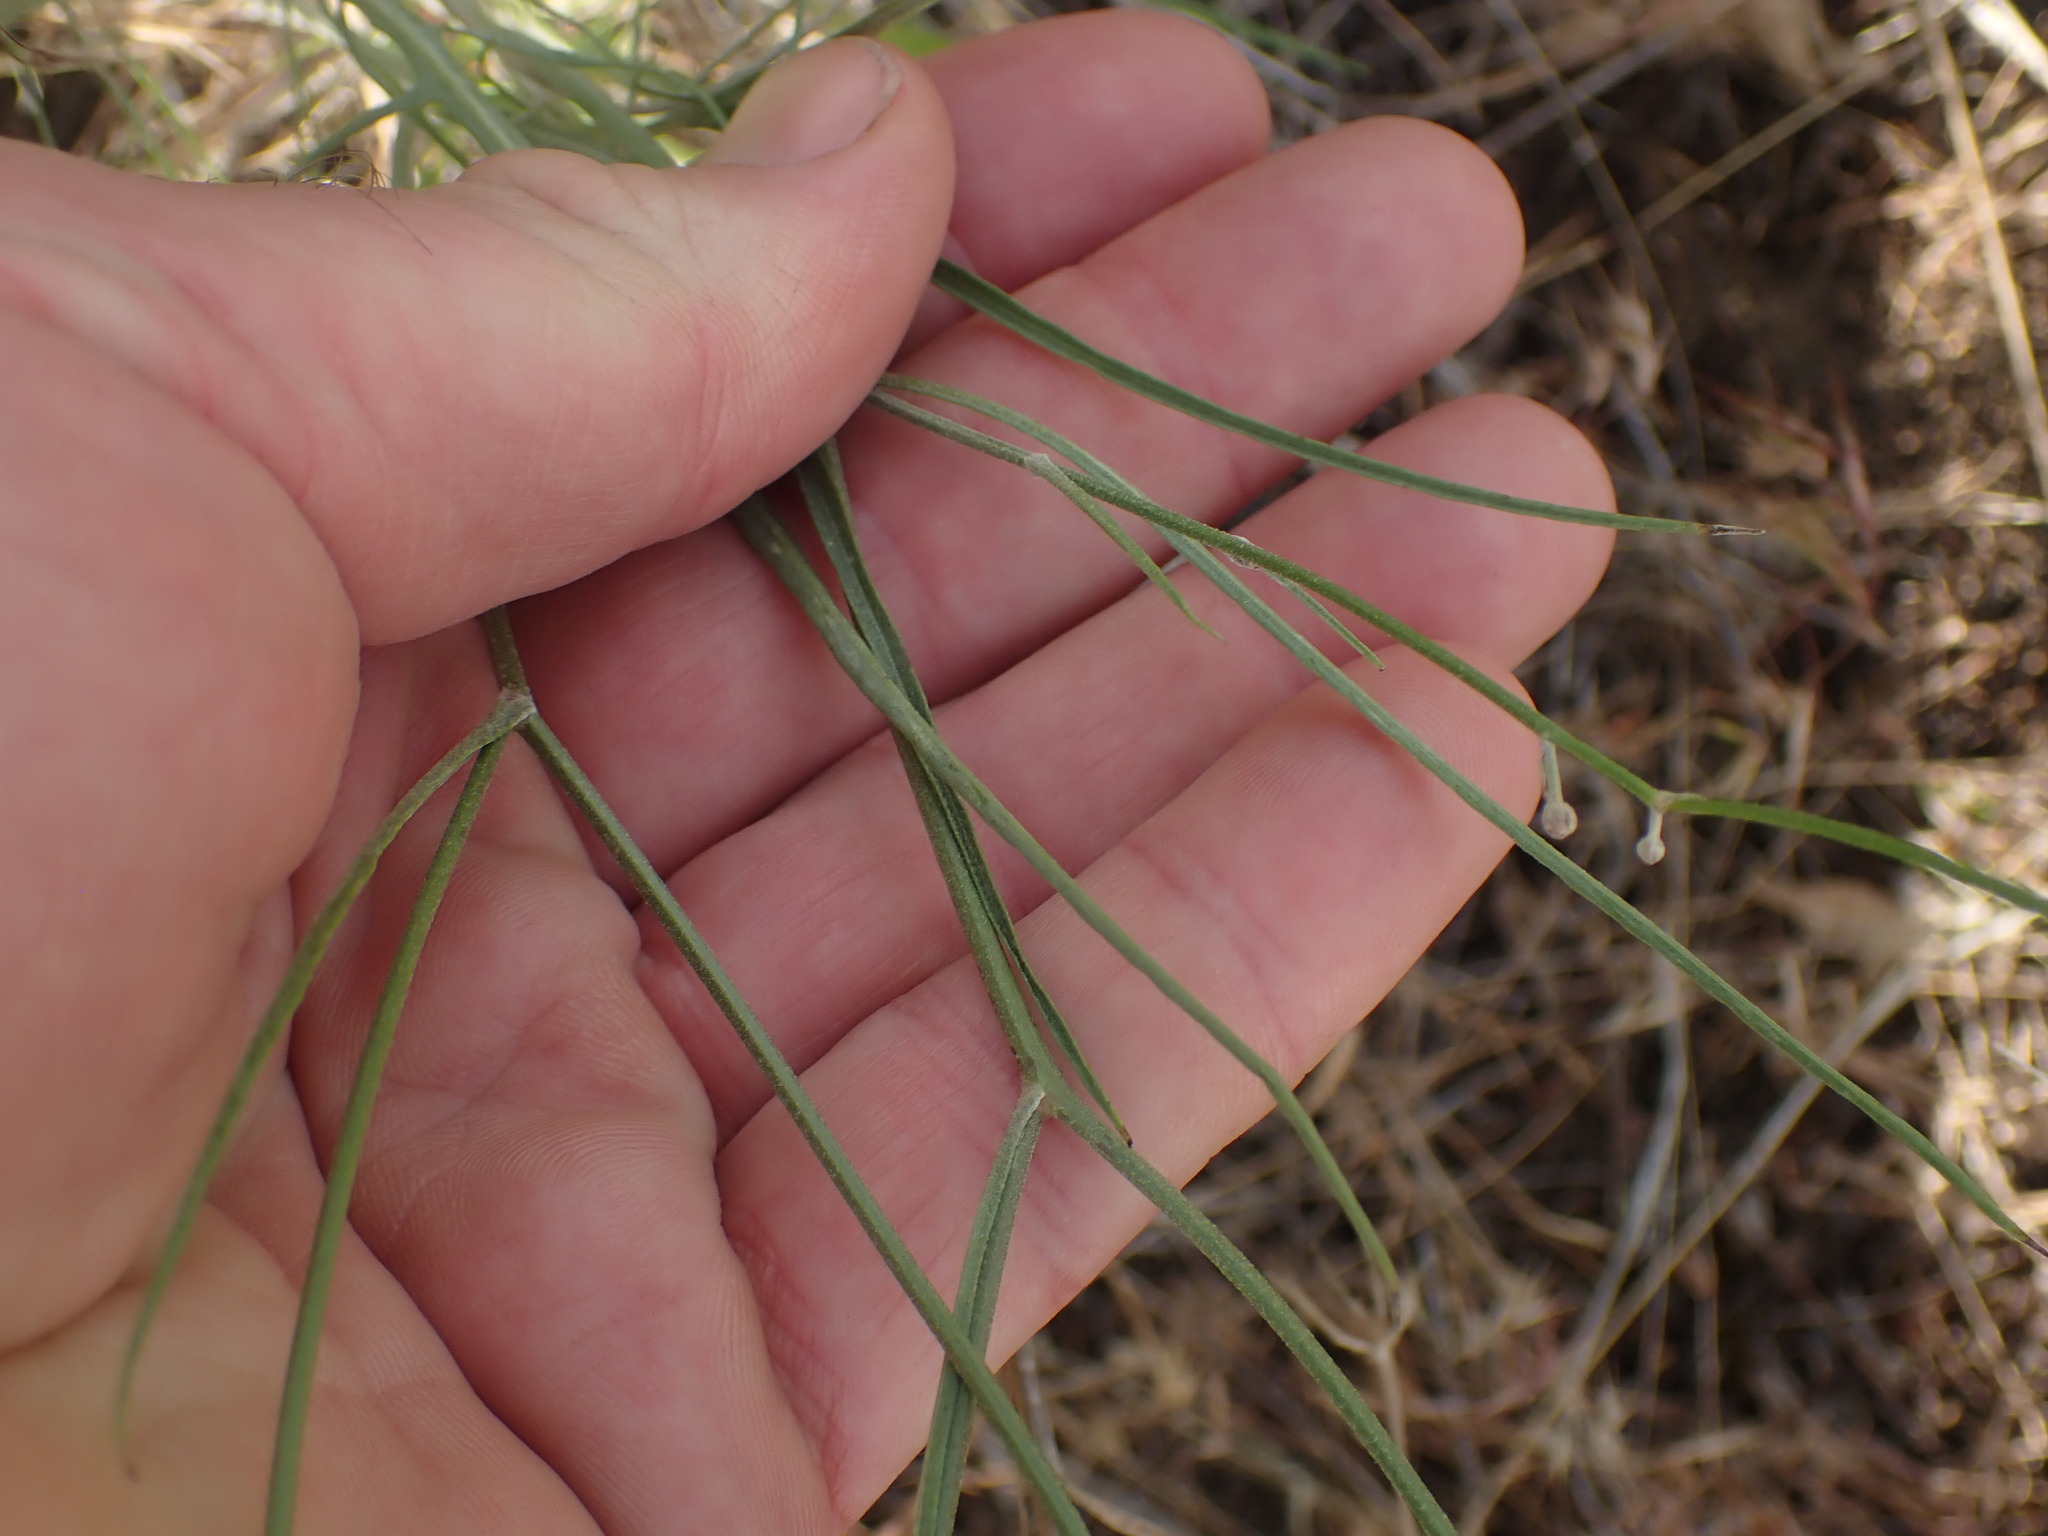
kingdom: Plantae
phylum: Tracheophyta
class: Magnoliopsida
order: Asterales
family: Asteraceae
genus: Crepis
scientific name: Crepis atribarba
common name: Dark hawk's-beard
